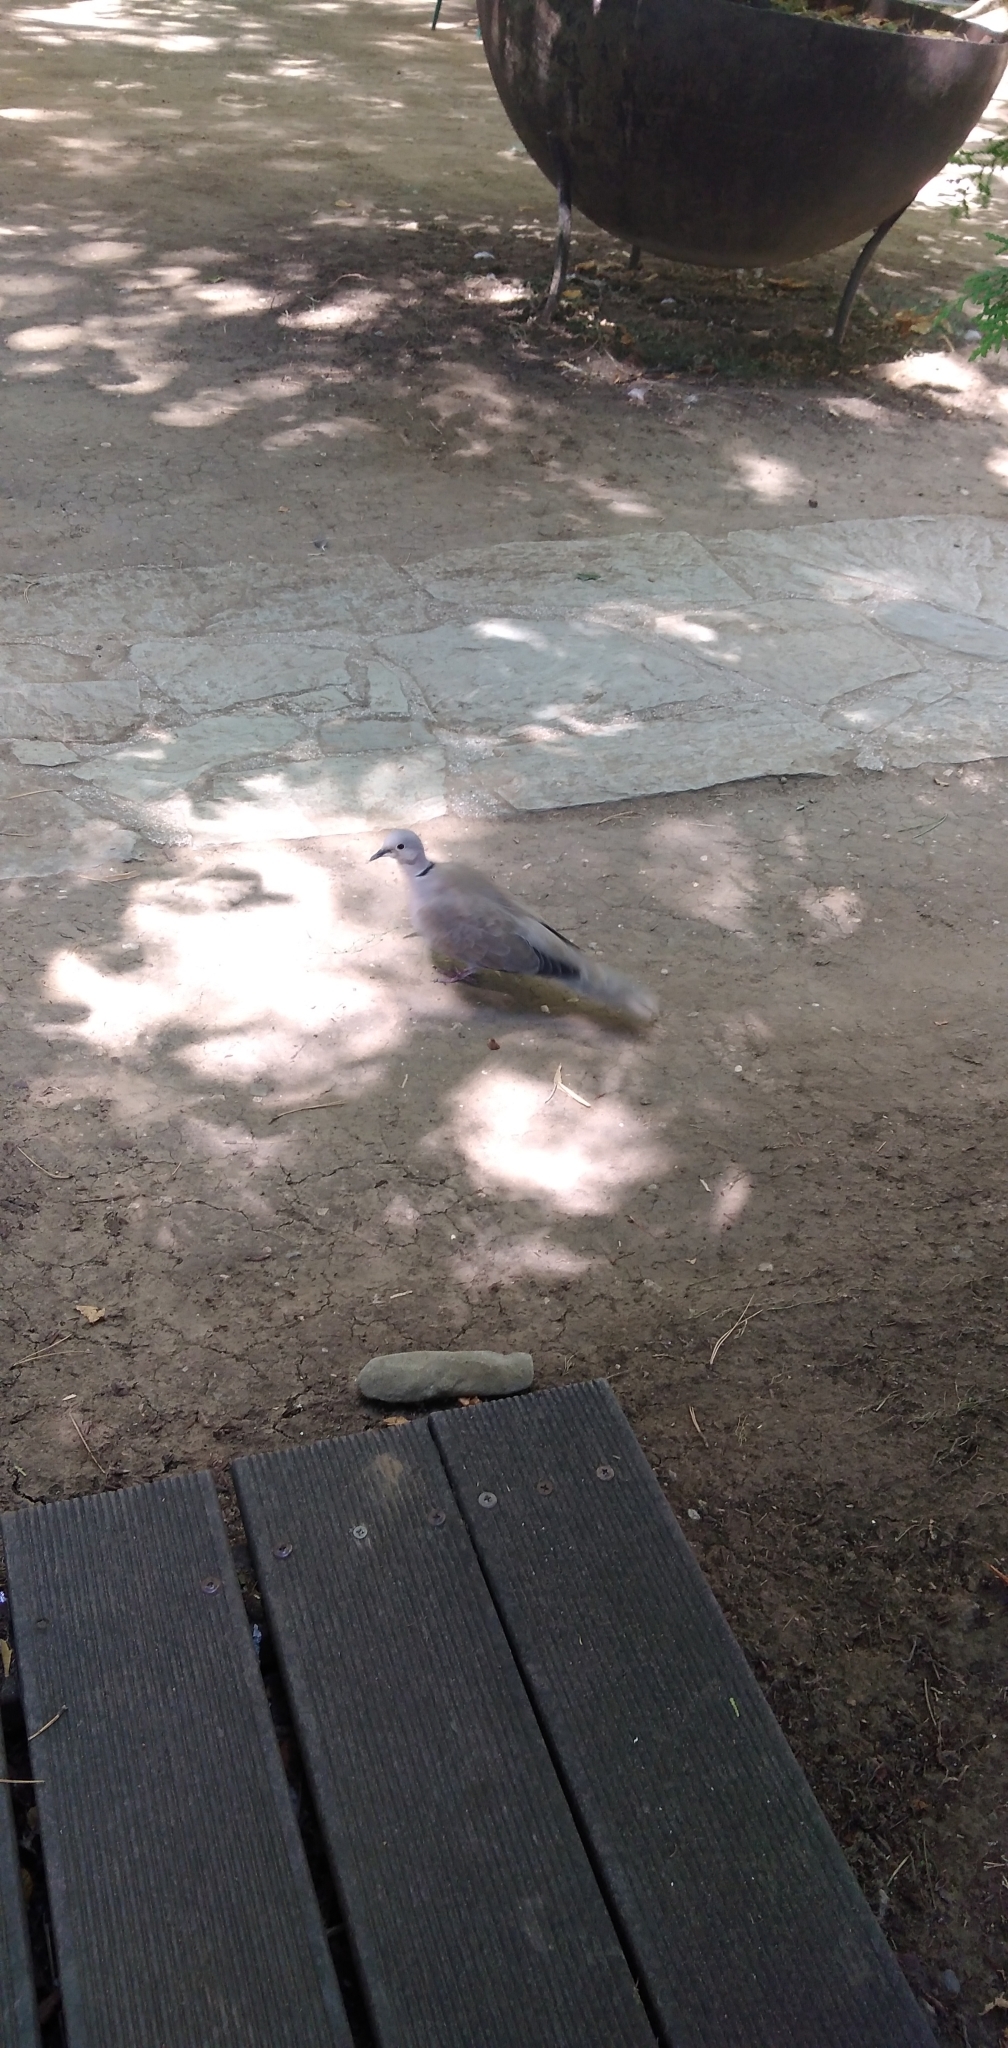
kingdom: Animalia
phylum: Chordata
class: Aves
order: Columbiformes
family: Columbidae
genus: Streptopelia
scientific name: Streptopelia decaocto
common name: Eurasian collared dove
